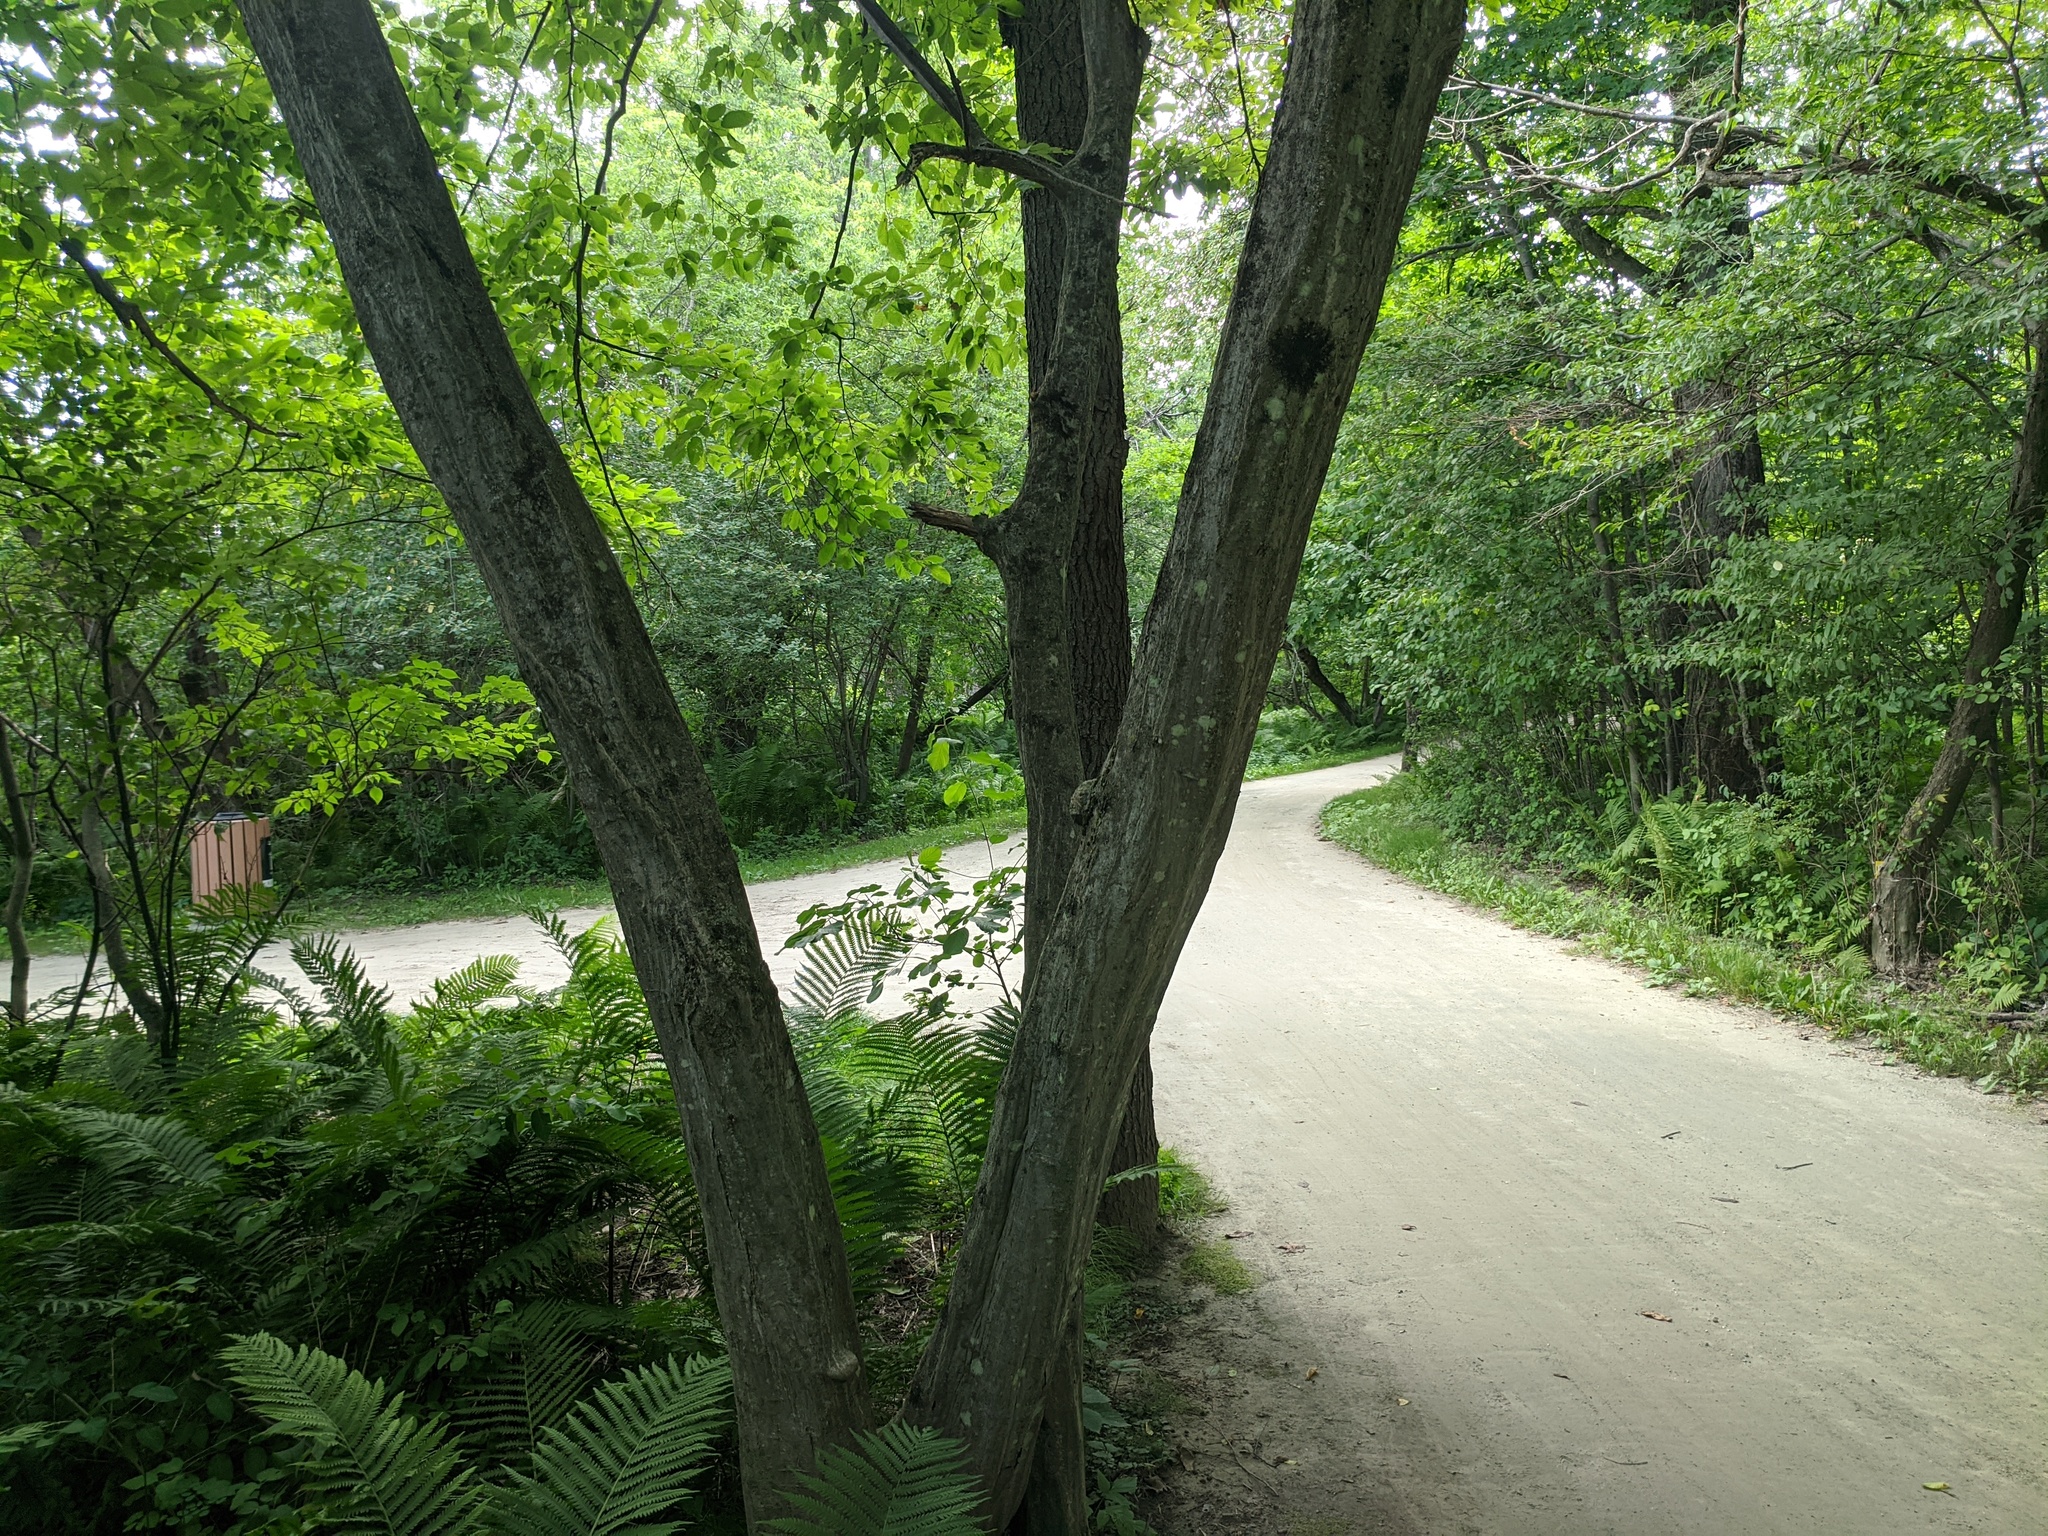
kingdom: Plantae
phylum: Tracheophyta
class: Magnoliopsida
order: Fagales
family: Betulaceae
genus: Carpinus
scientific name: Carpinus caroliniana
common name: American hornbeam
